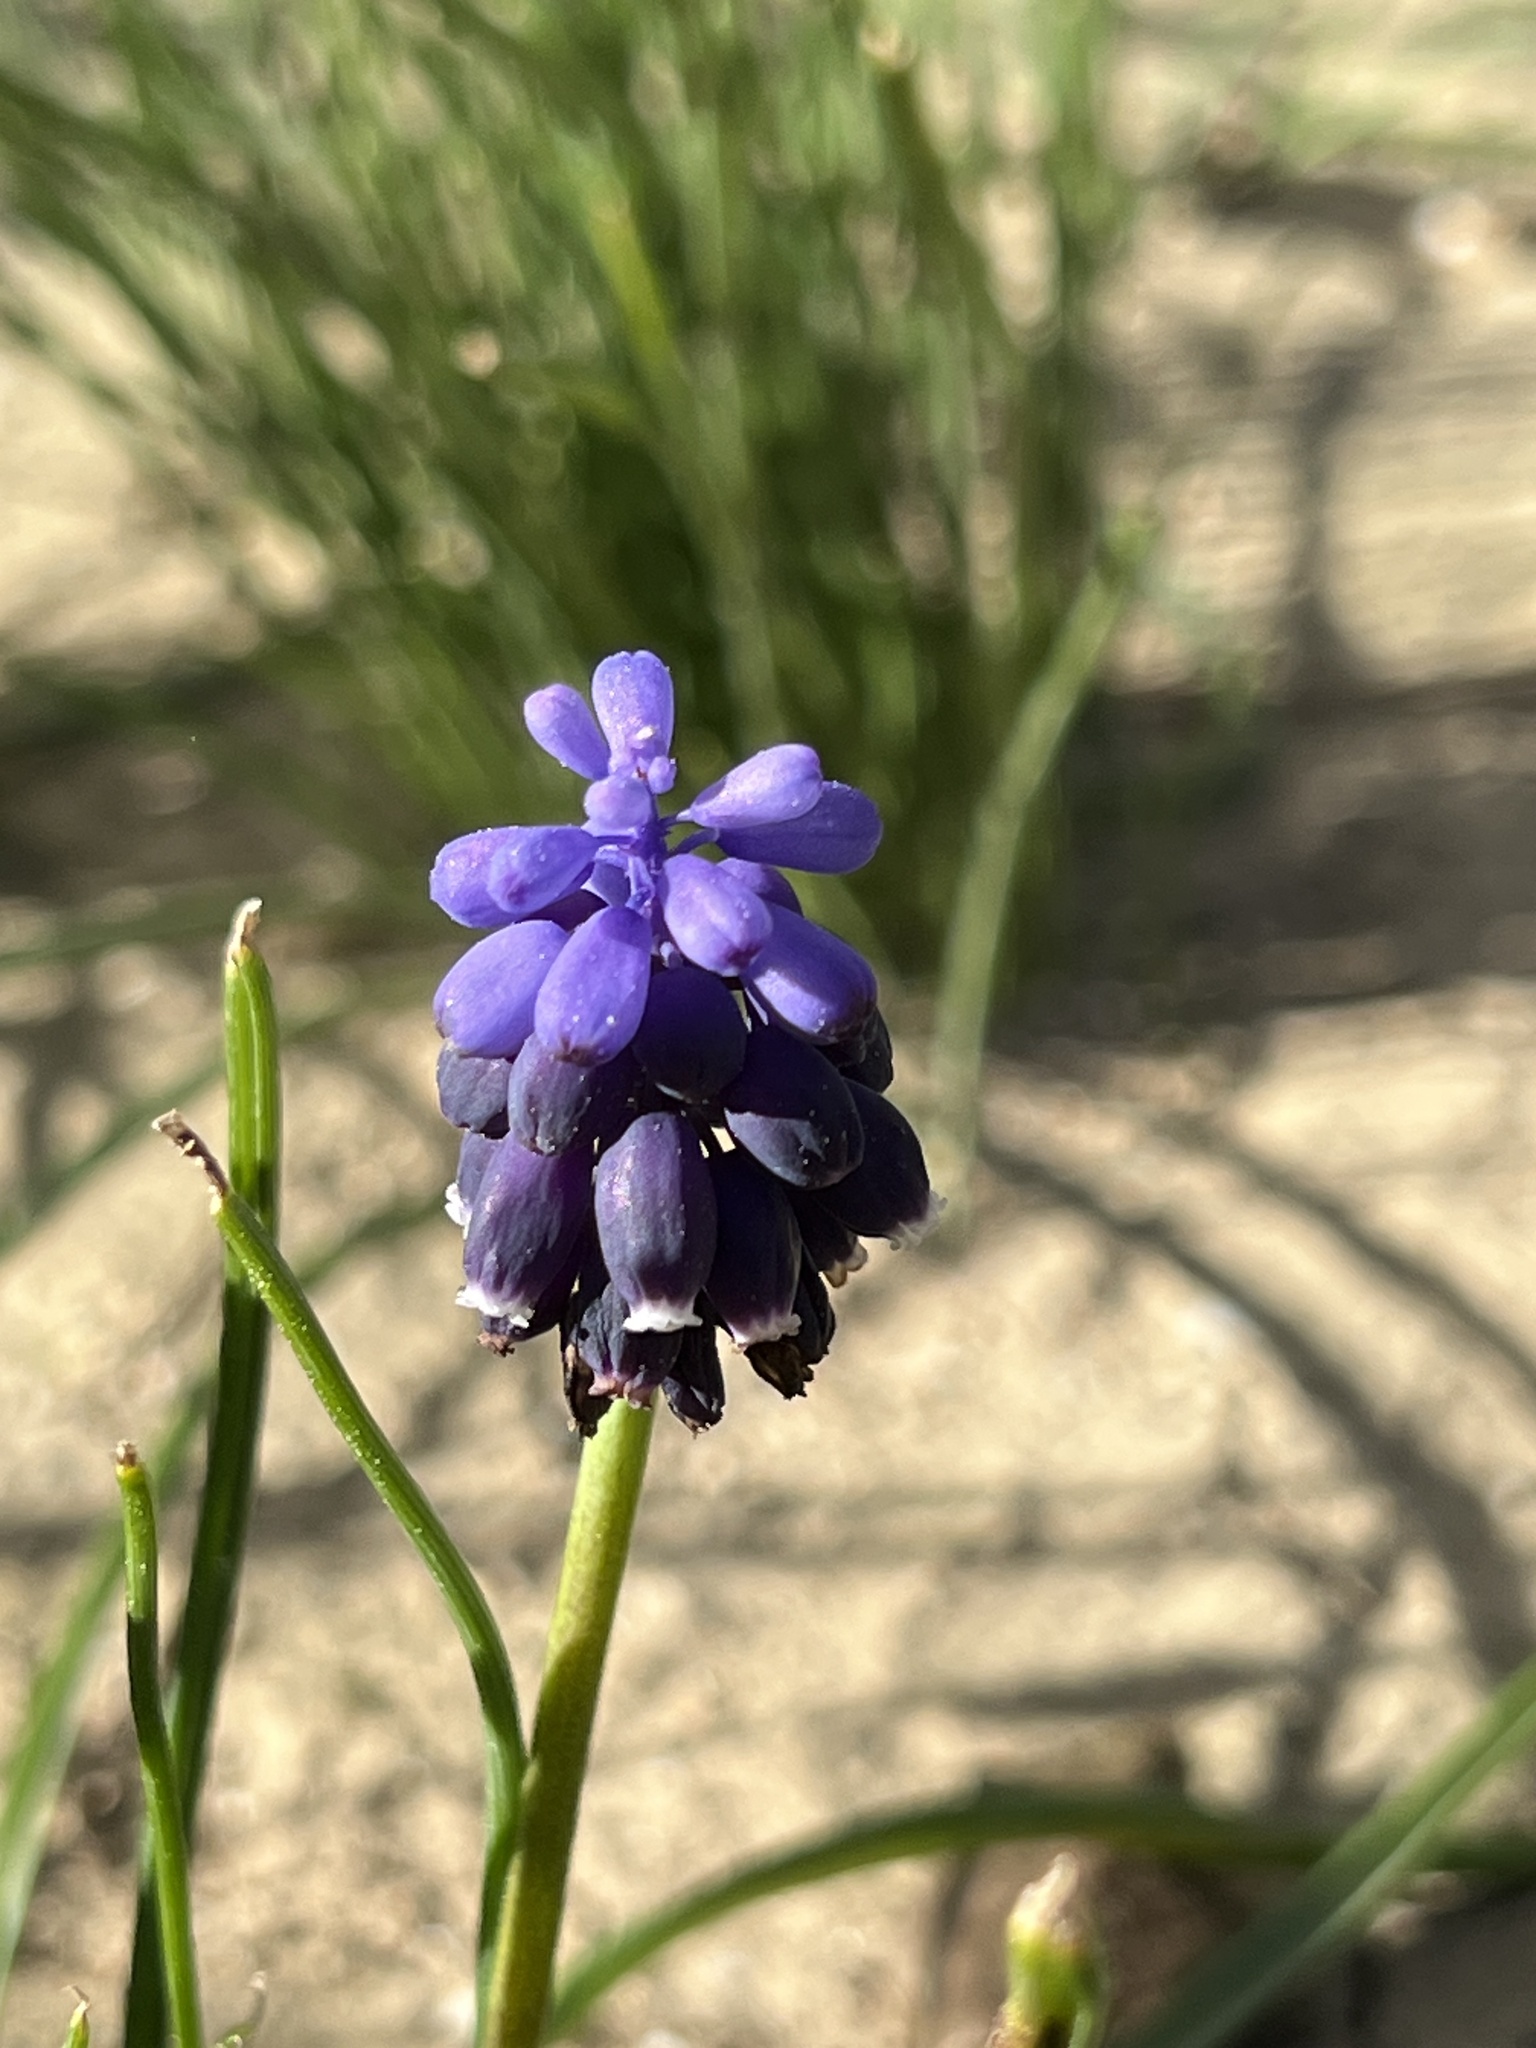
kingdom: Plantae
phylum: Tracheophyta
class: Liliopsida
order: Asparagales
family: Asparagaceae
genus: Muscari
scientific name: Muscari neglectum
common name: Grape-hyacinth
